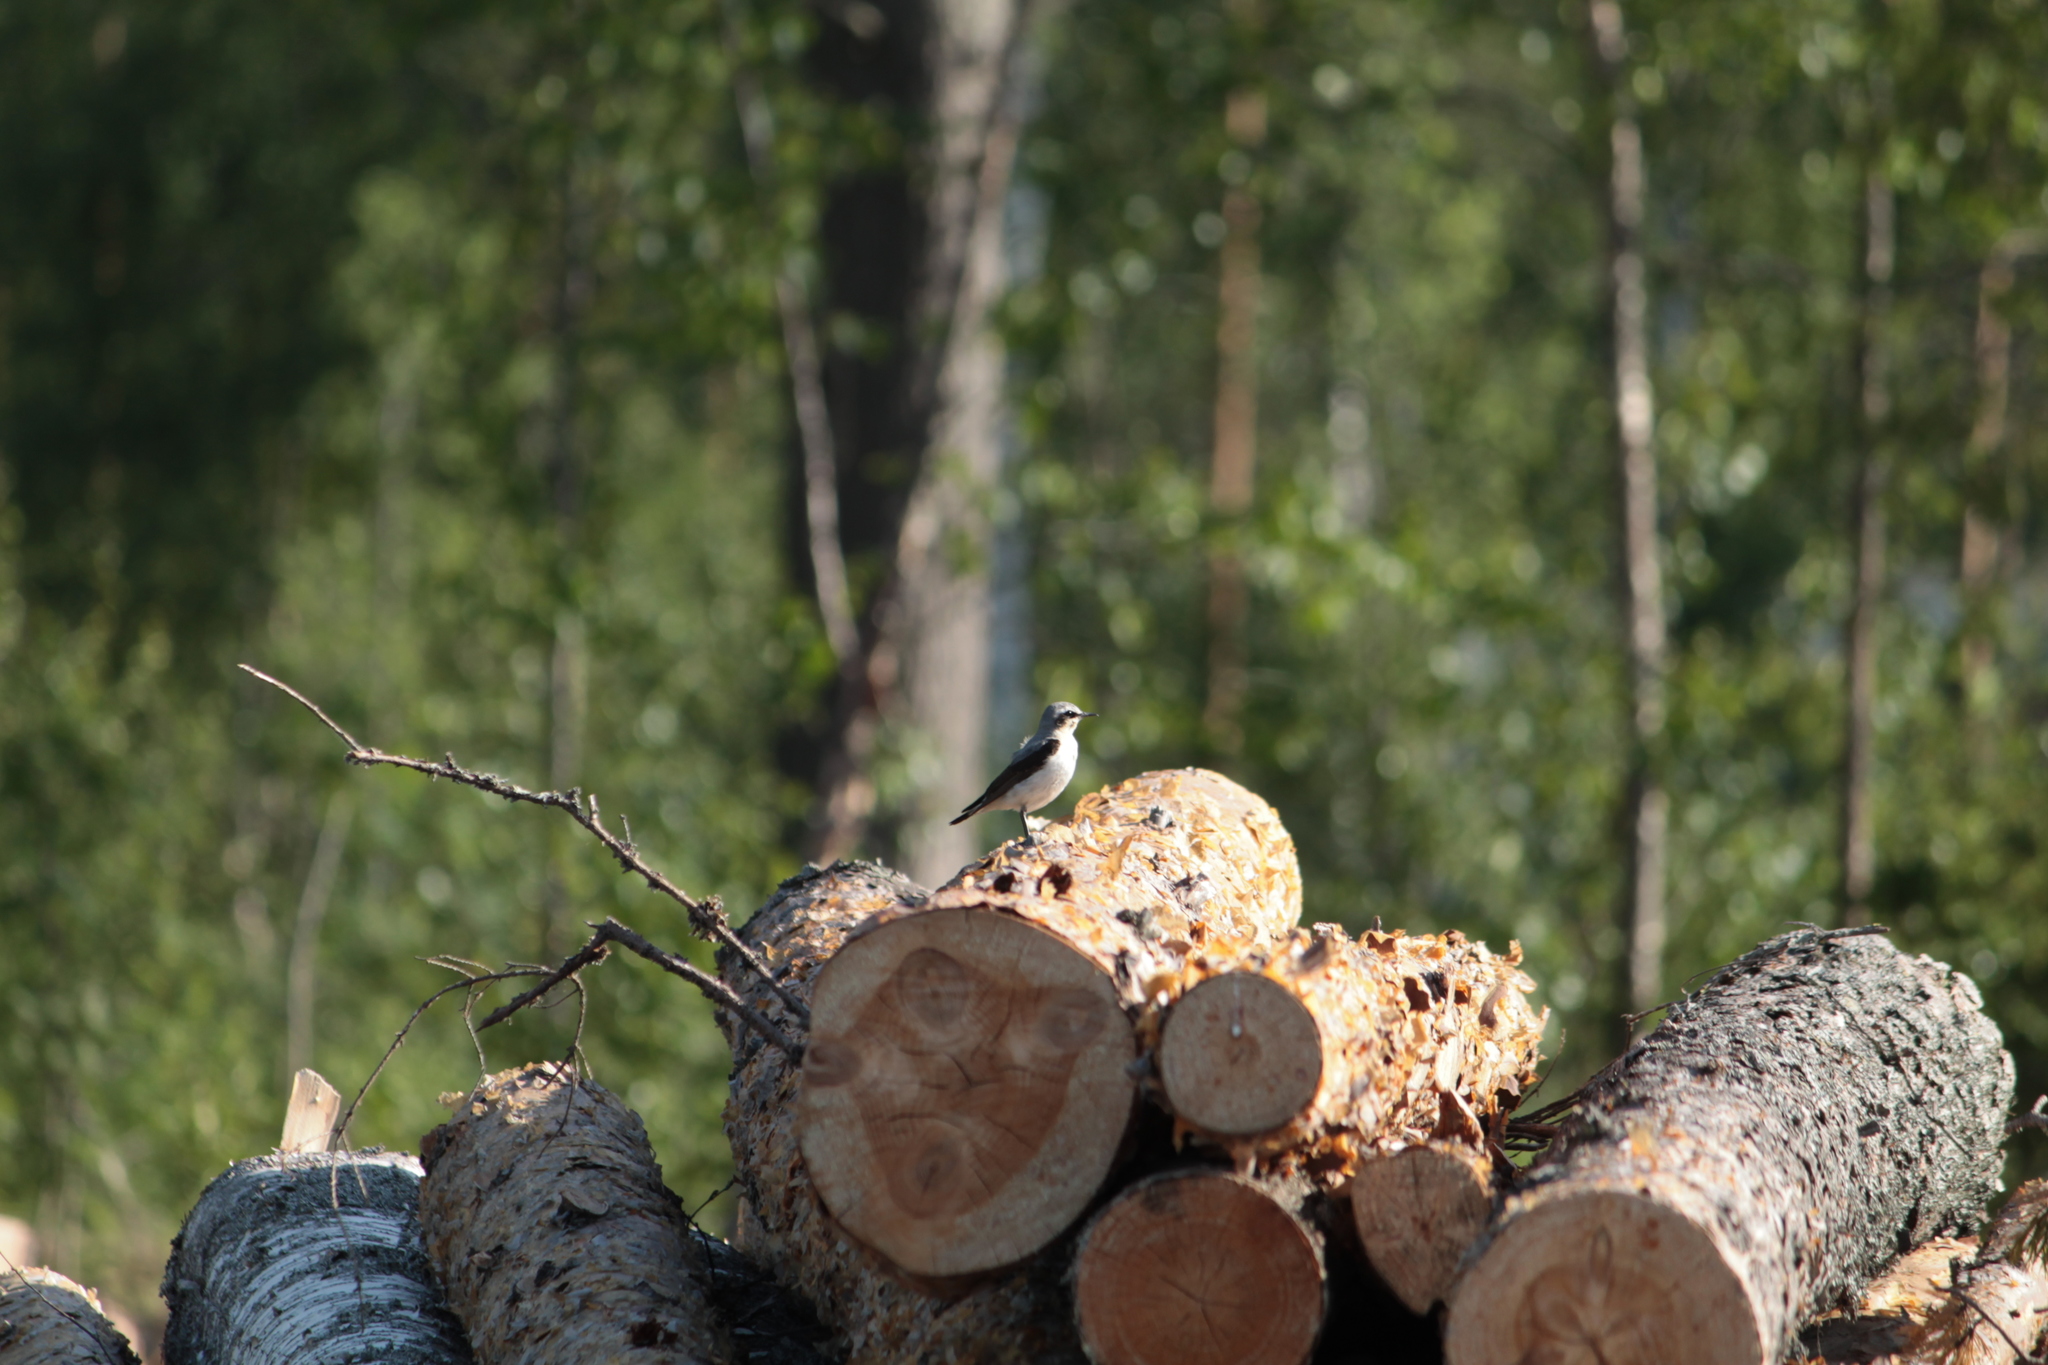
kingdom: Animalia
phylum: Chordata
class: Aves
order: Passeriformes
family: Muscicapidae
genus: Oenanthe
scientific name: Oenanthe oenanthe
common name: Northern wheatear
